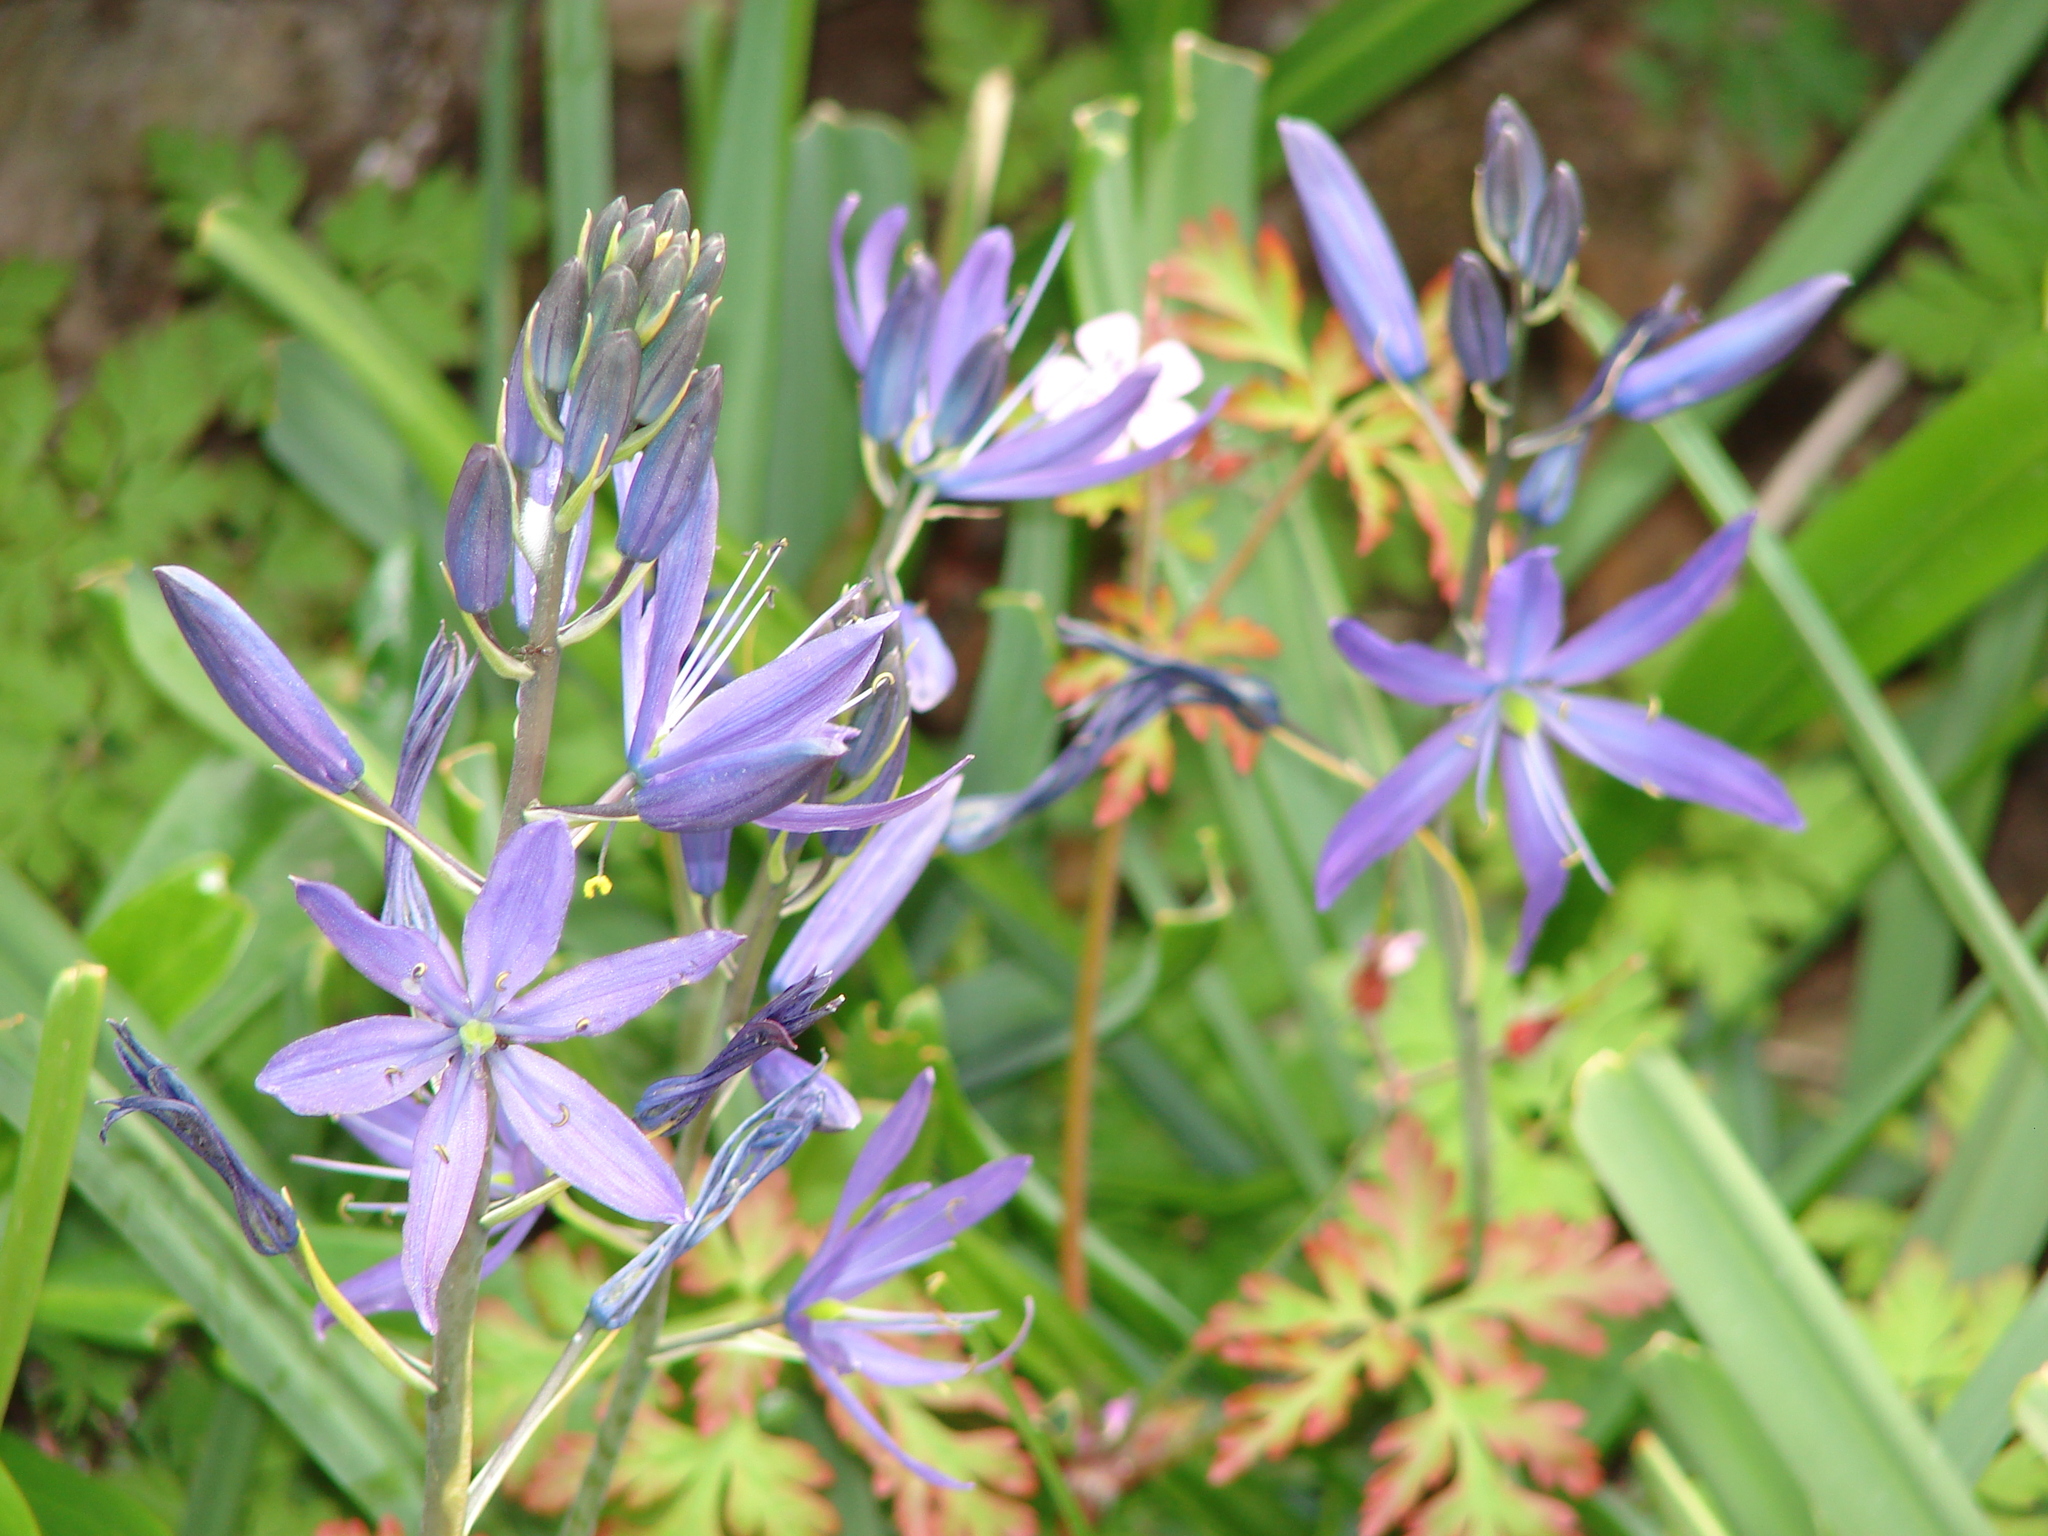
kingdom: Plantae
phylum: Tracheophyta
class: Liliopsida
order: Asparagales
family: Asparagaceae
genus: Camassia
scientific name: Camassia leichtlinii
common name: Leichtlin's camas
